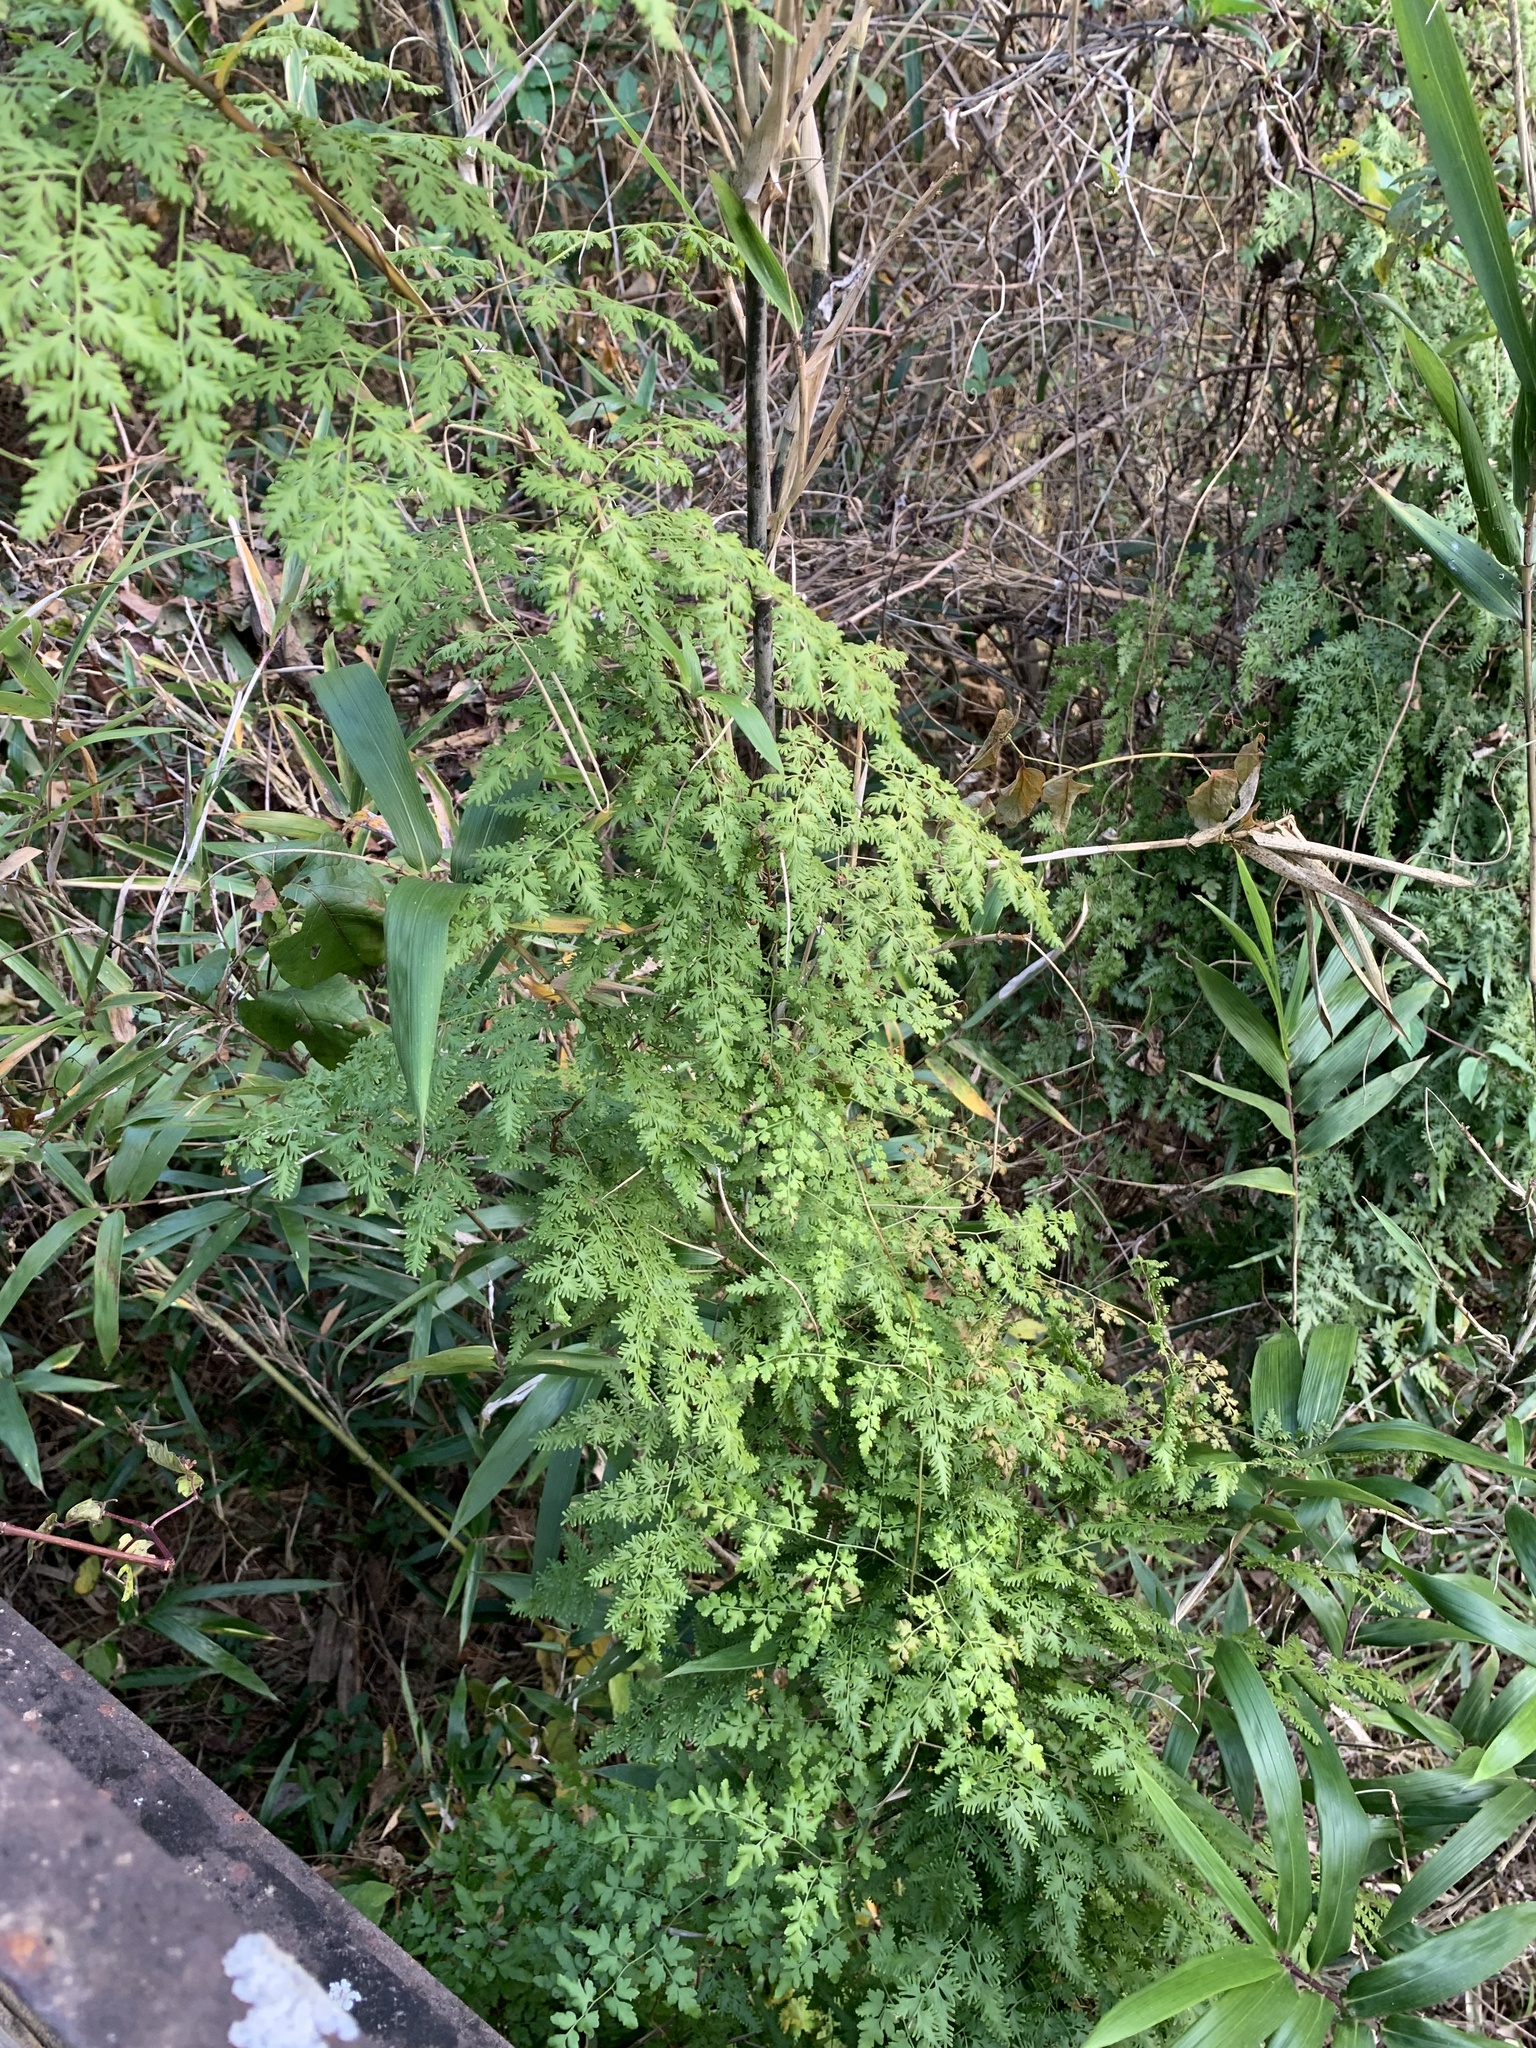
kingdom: Plantae
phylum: Tracheophyta
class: Polypodiopsida
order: Schizaeales
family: Lygodiaceae
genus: Lygodium
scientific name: Lygodium japonicum
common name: Japanese climbing fern
